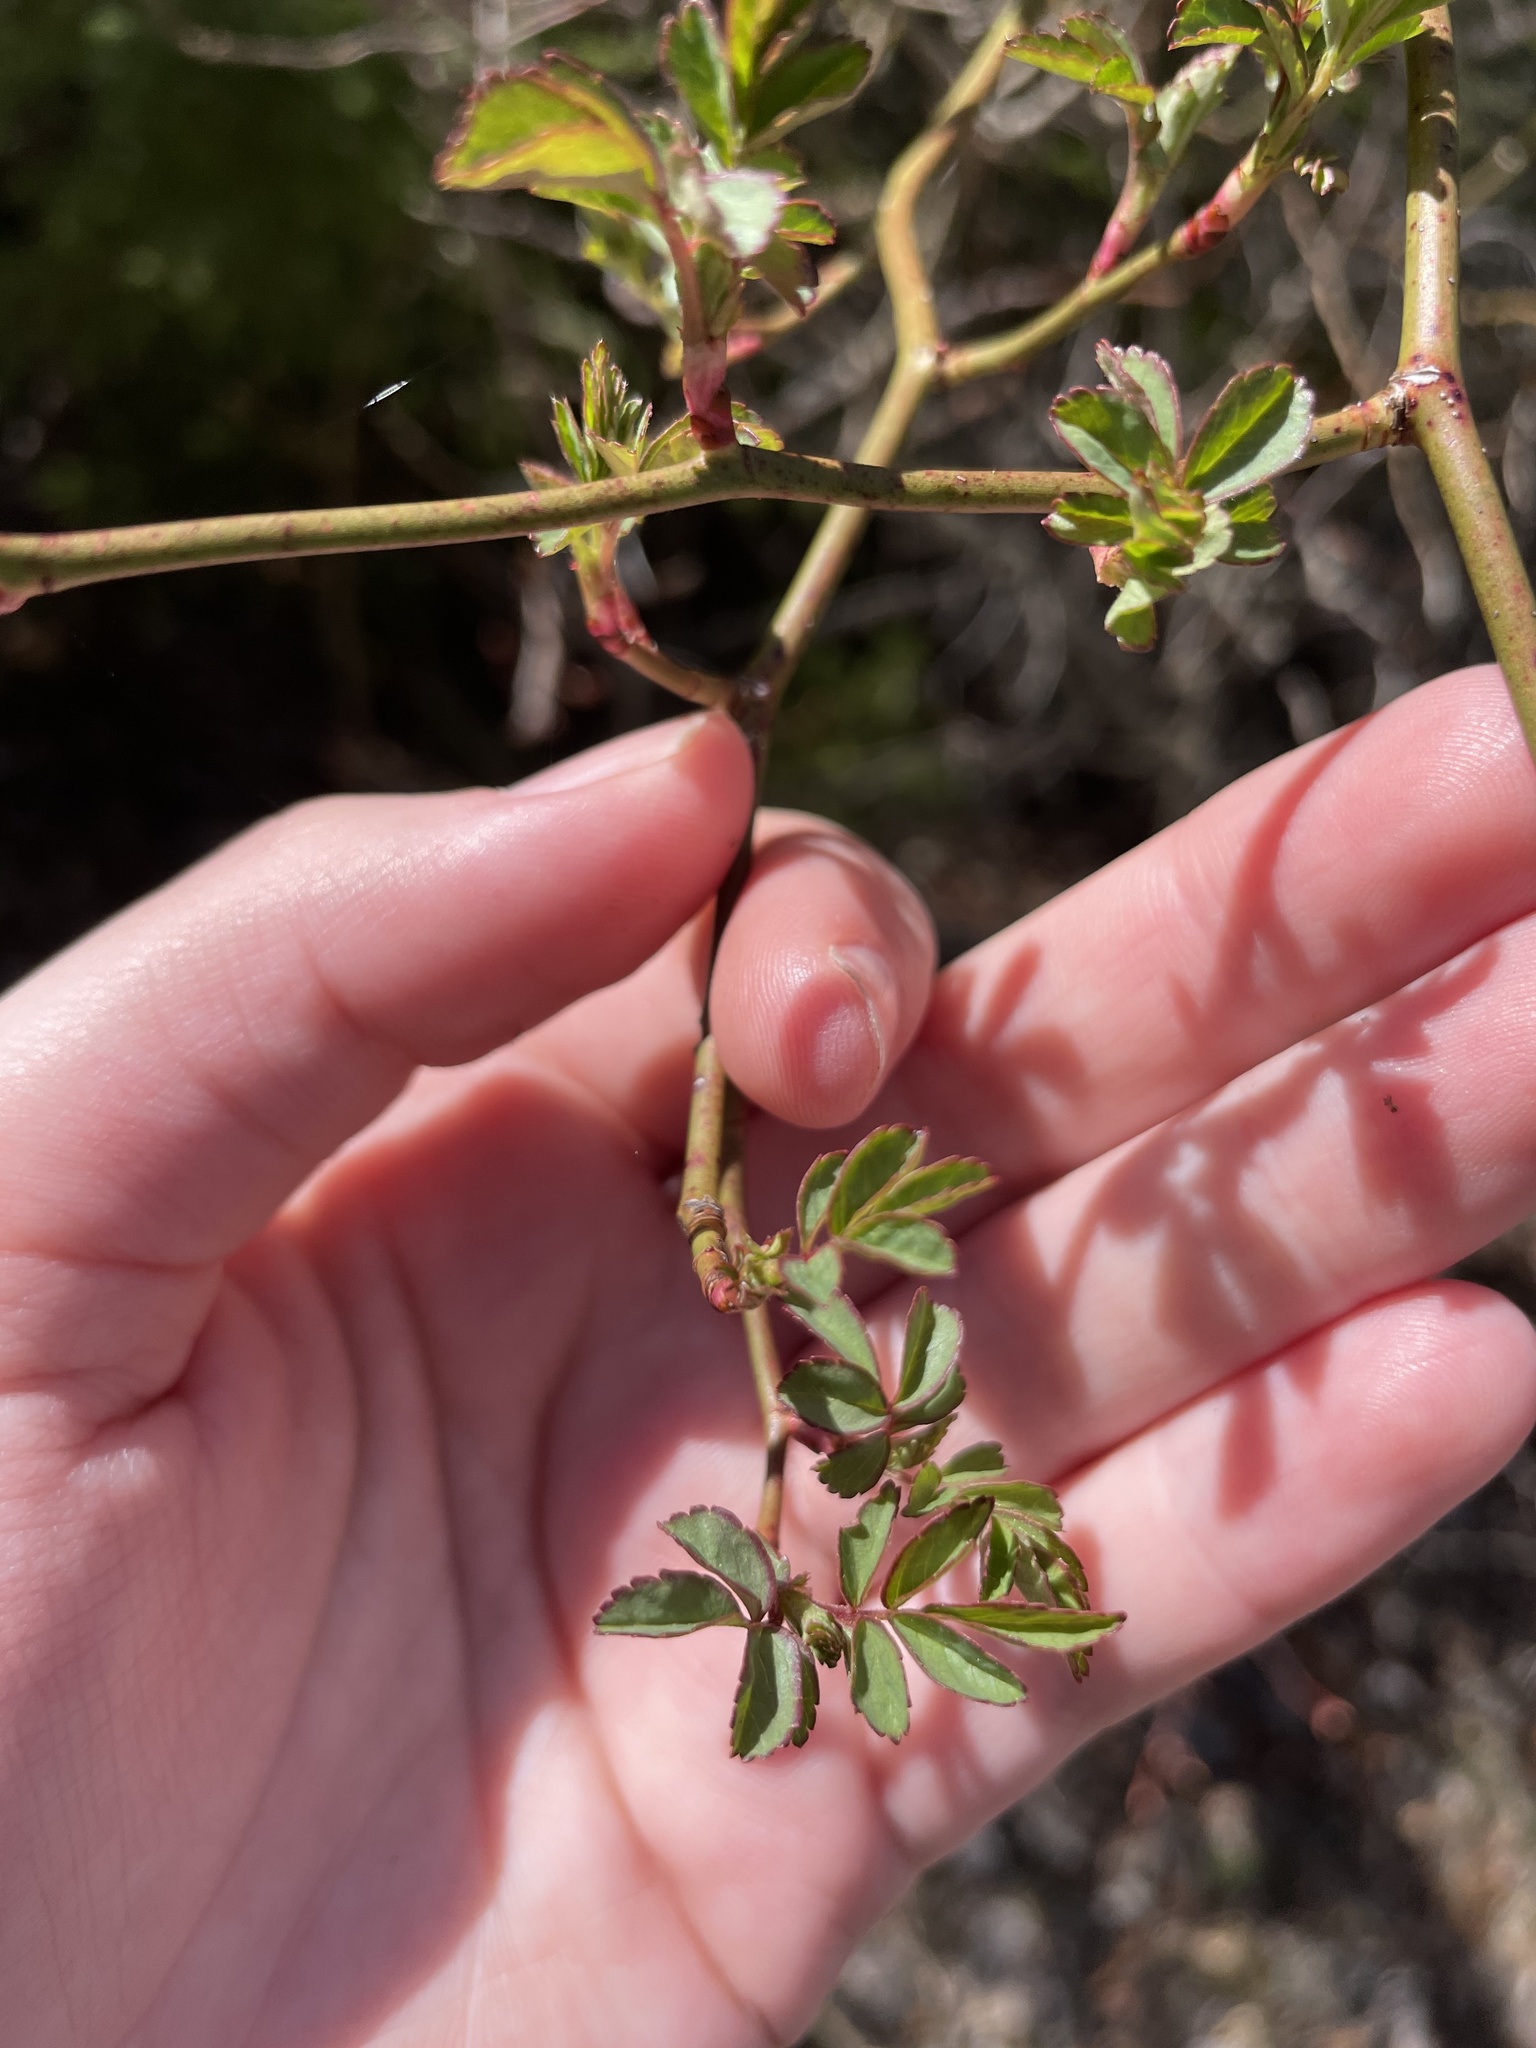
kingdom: Plantae
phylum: Tracheophyta
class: Magnoliopsida
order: Rosales
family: Rosaceae
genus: Rosa
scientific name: Rosa multiflora
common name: Multiflora rose
